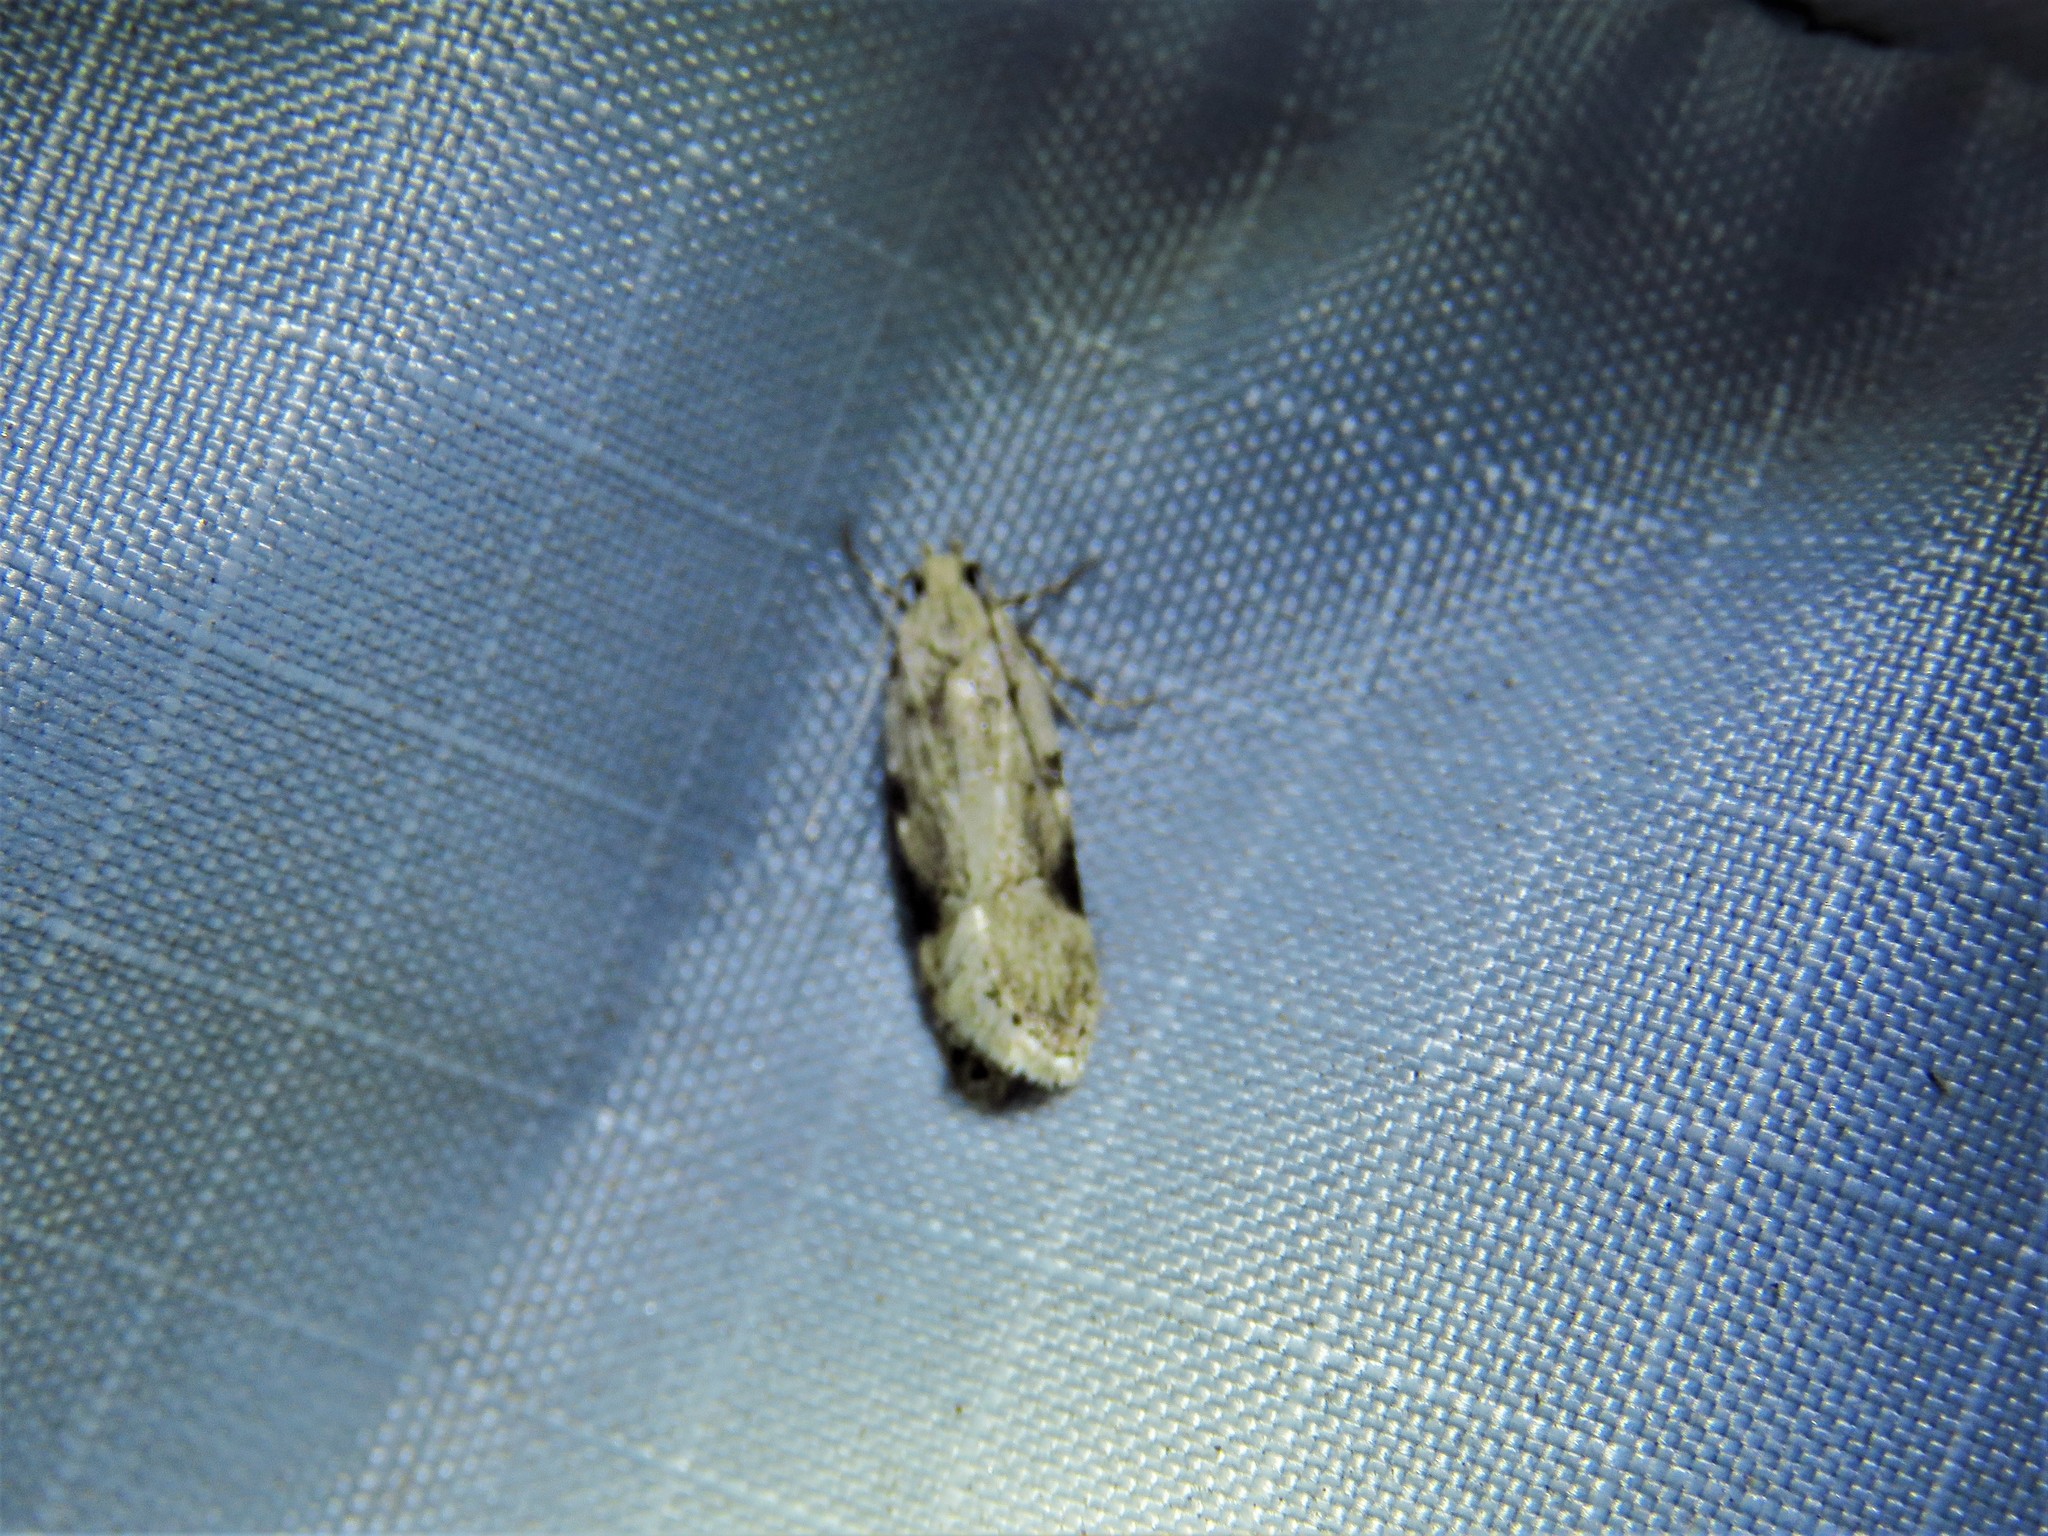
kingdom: Animalia
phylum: Arthropoda
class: Insecta
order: Lepidoptera
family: Gelechiidae
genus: Friseria
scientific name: Friseria cockerelli
